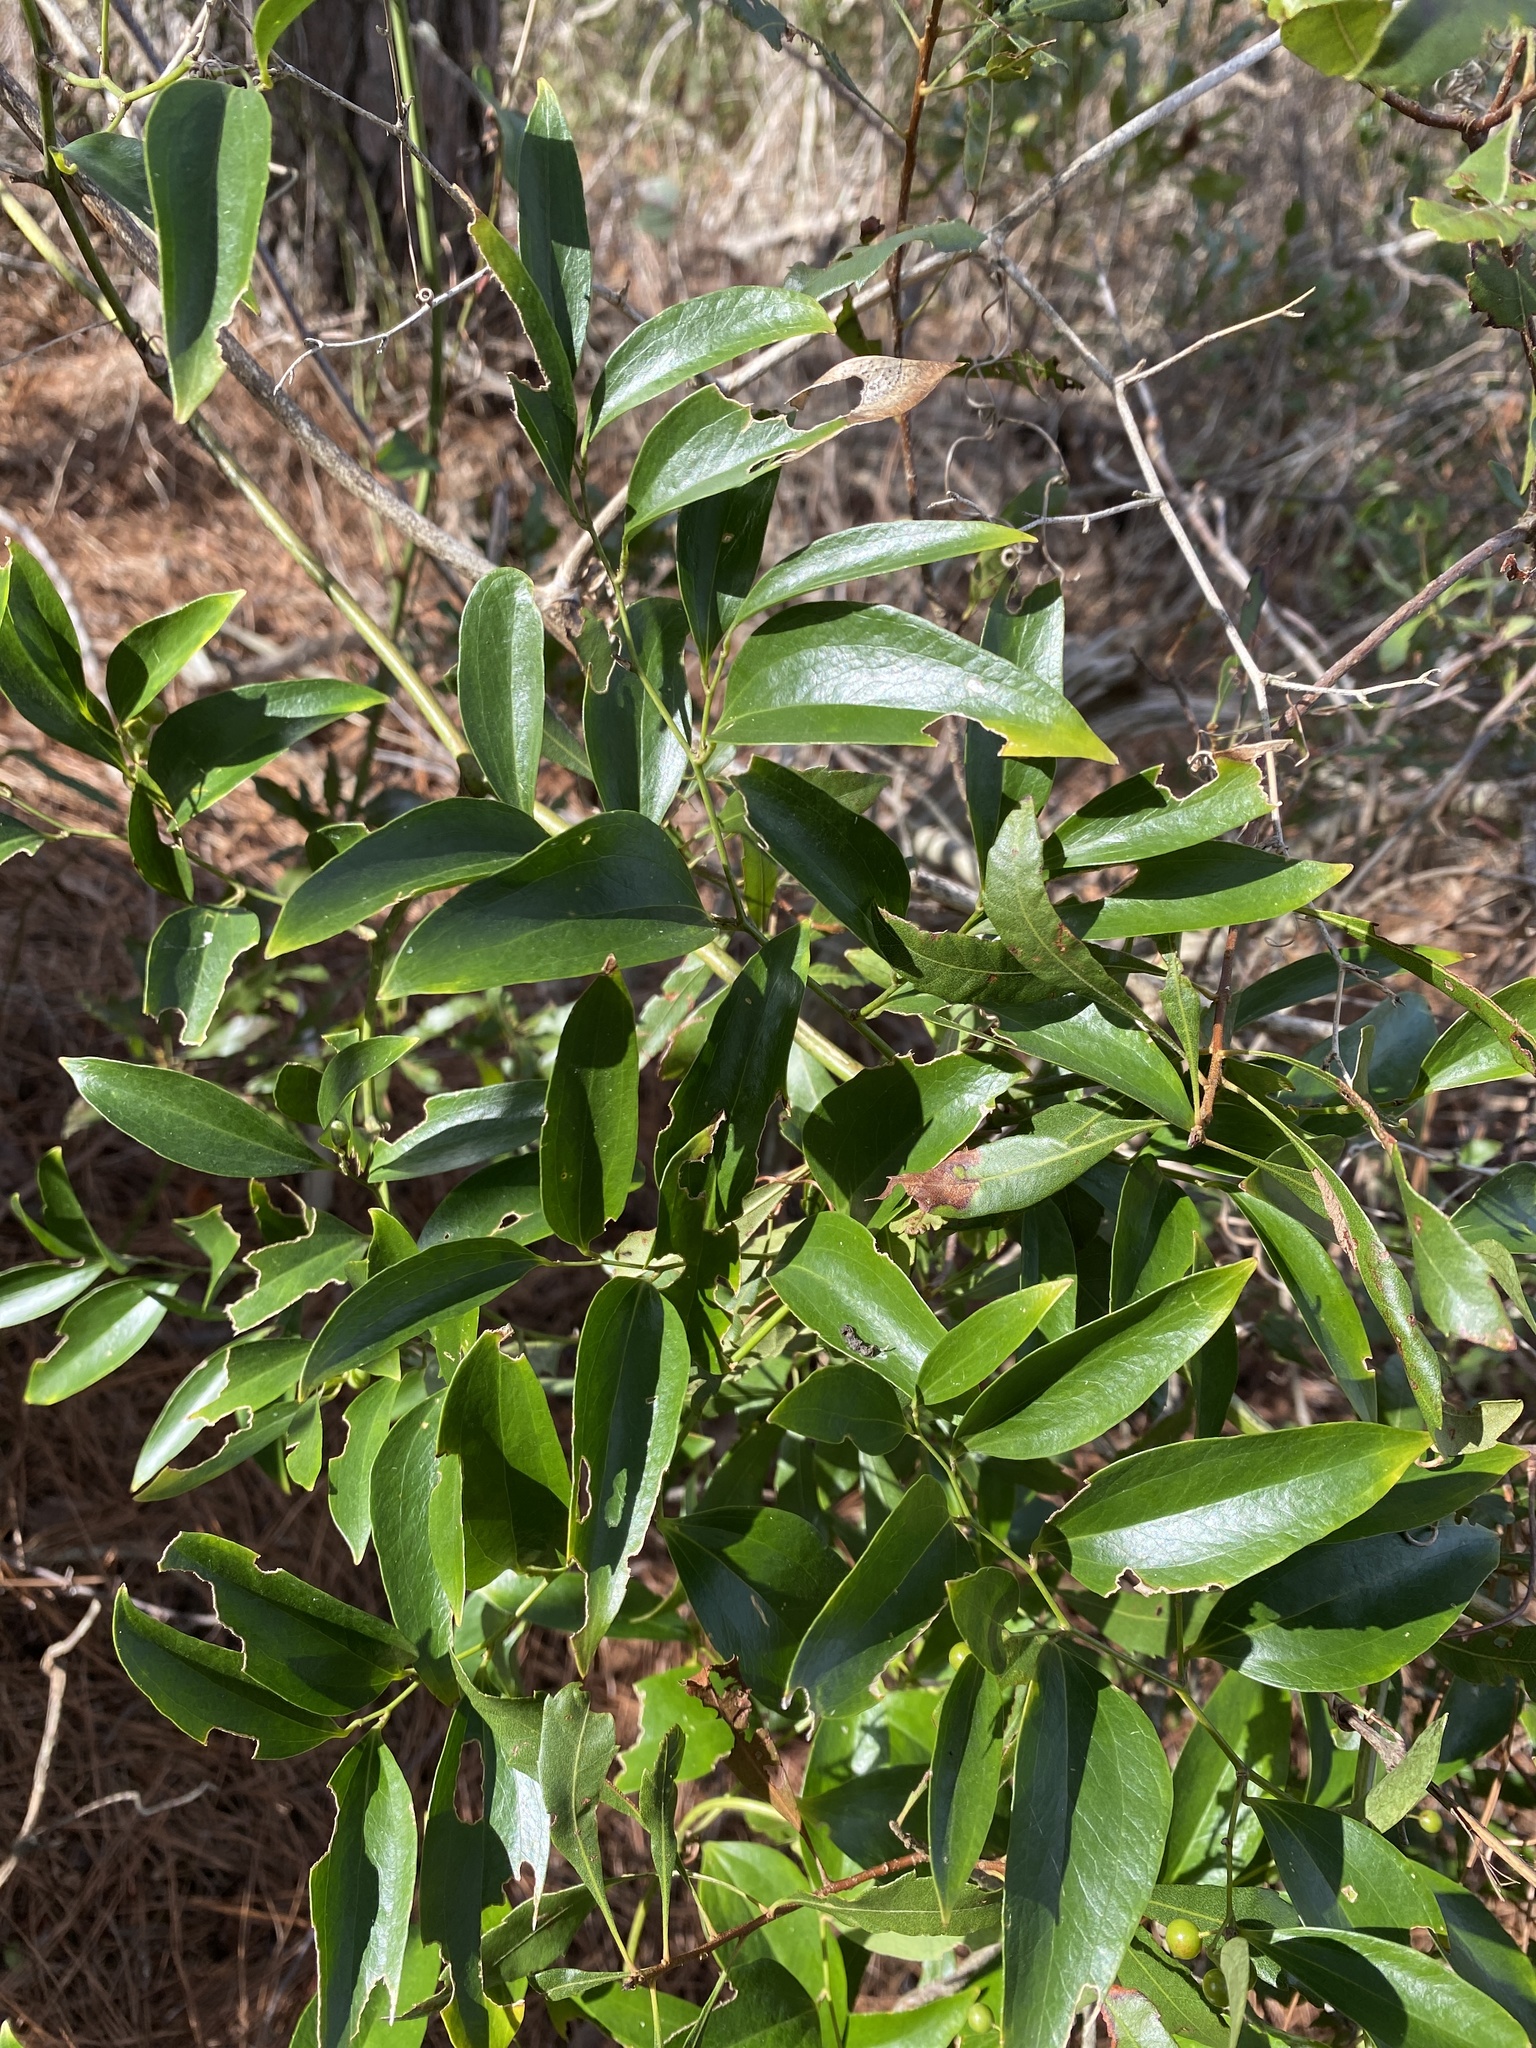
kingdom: Plantae
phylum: Tracheophyta
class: Liliopsida
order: Liliales
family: Smilacaceae
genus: Smilax
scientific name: Smilax maritima
